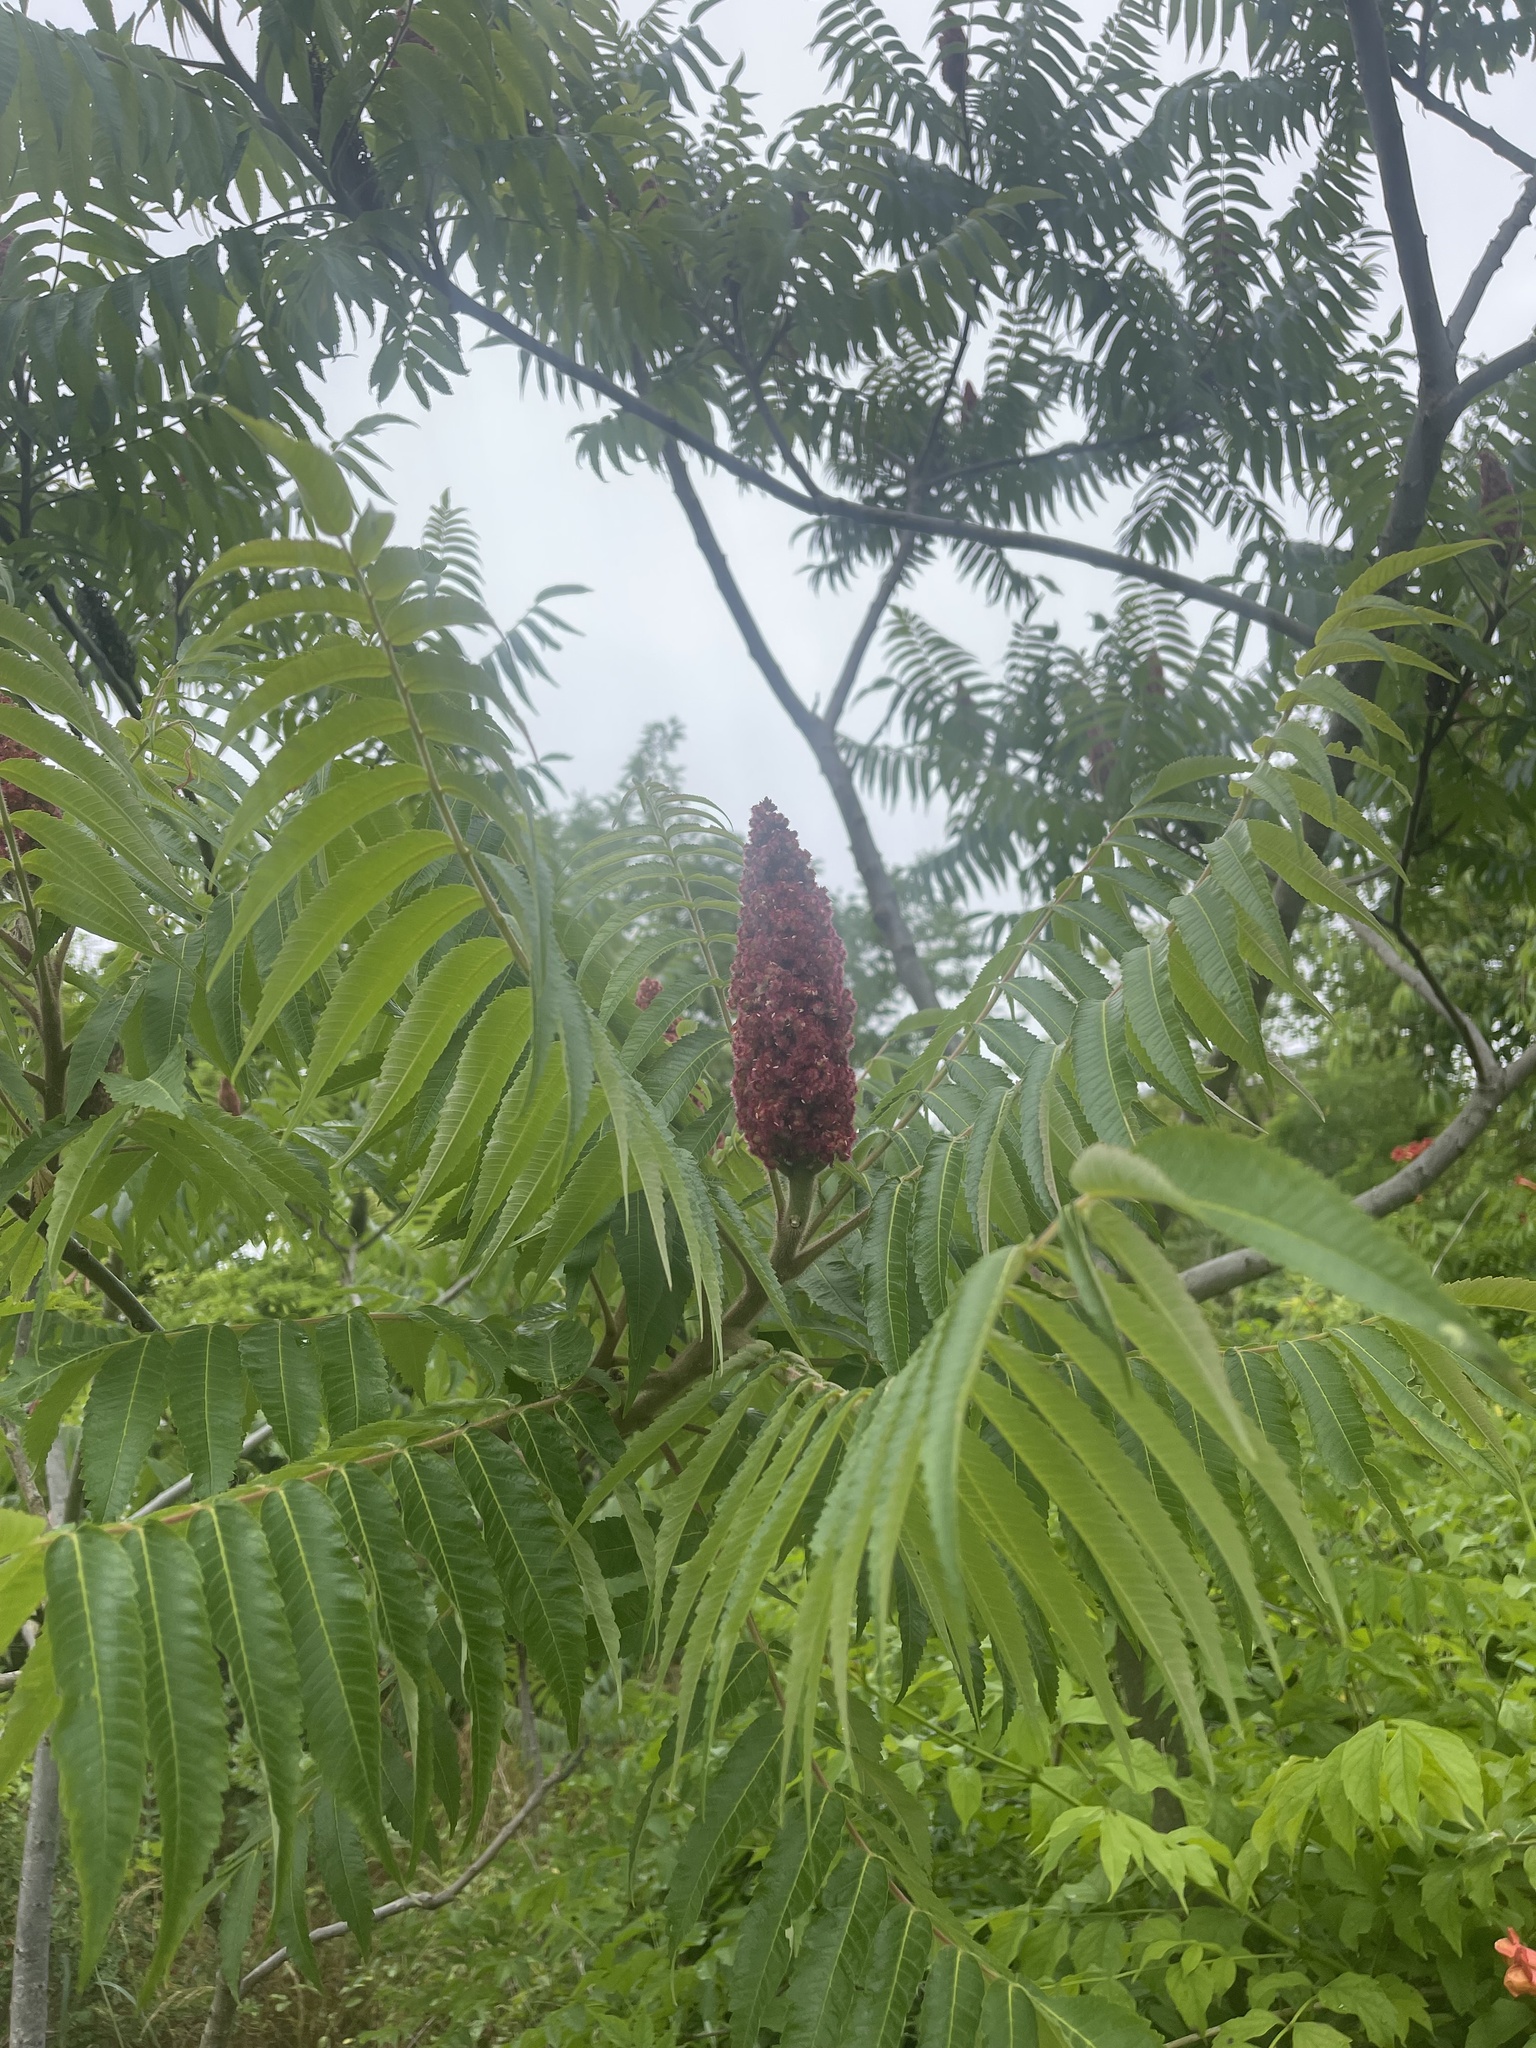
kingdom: Plantae
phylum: Tracheophyta
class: Magnoliopsida
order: Sapindales
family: Anacardiaceae
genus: Rhus
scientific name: Rhus typhina
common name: Staghorn sumac
